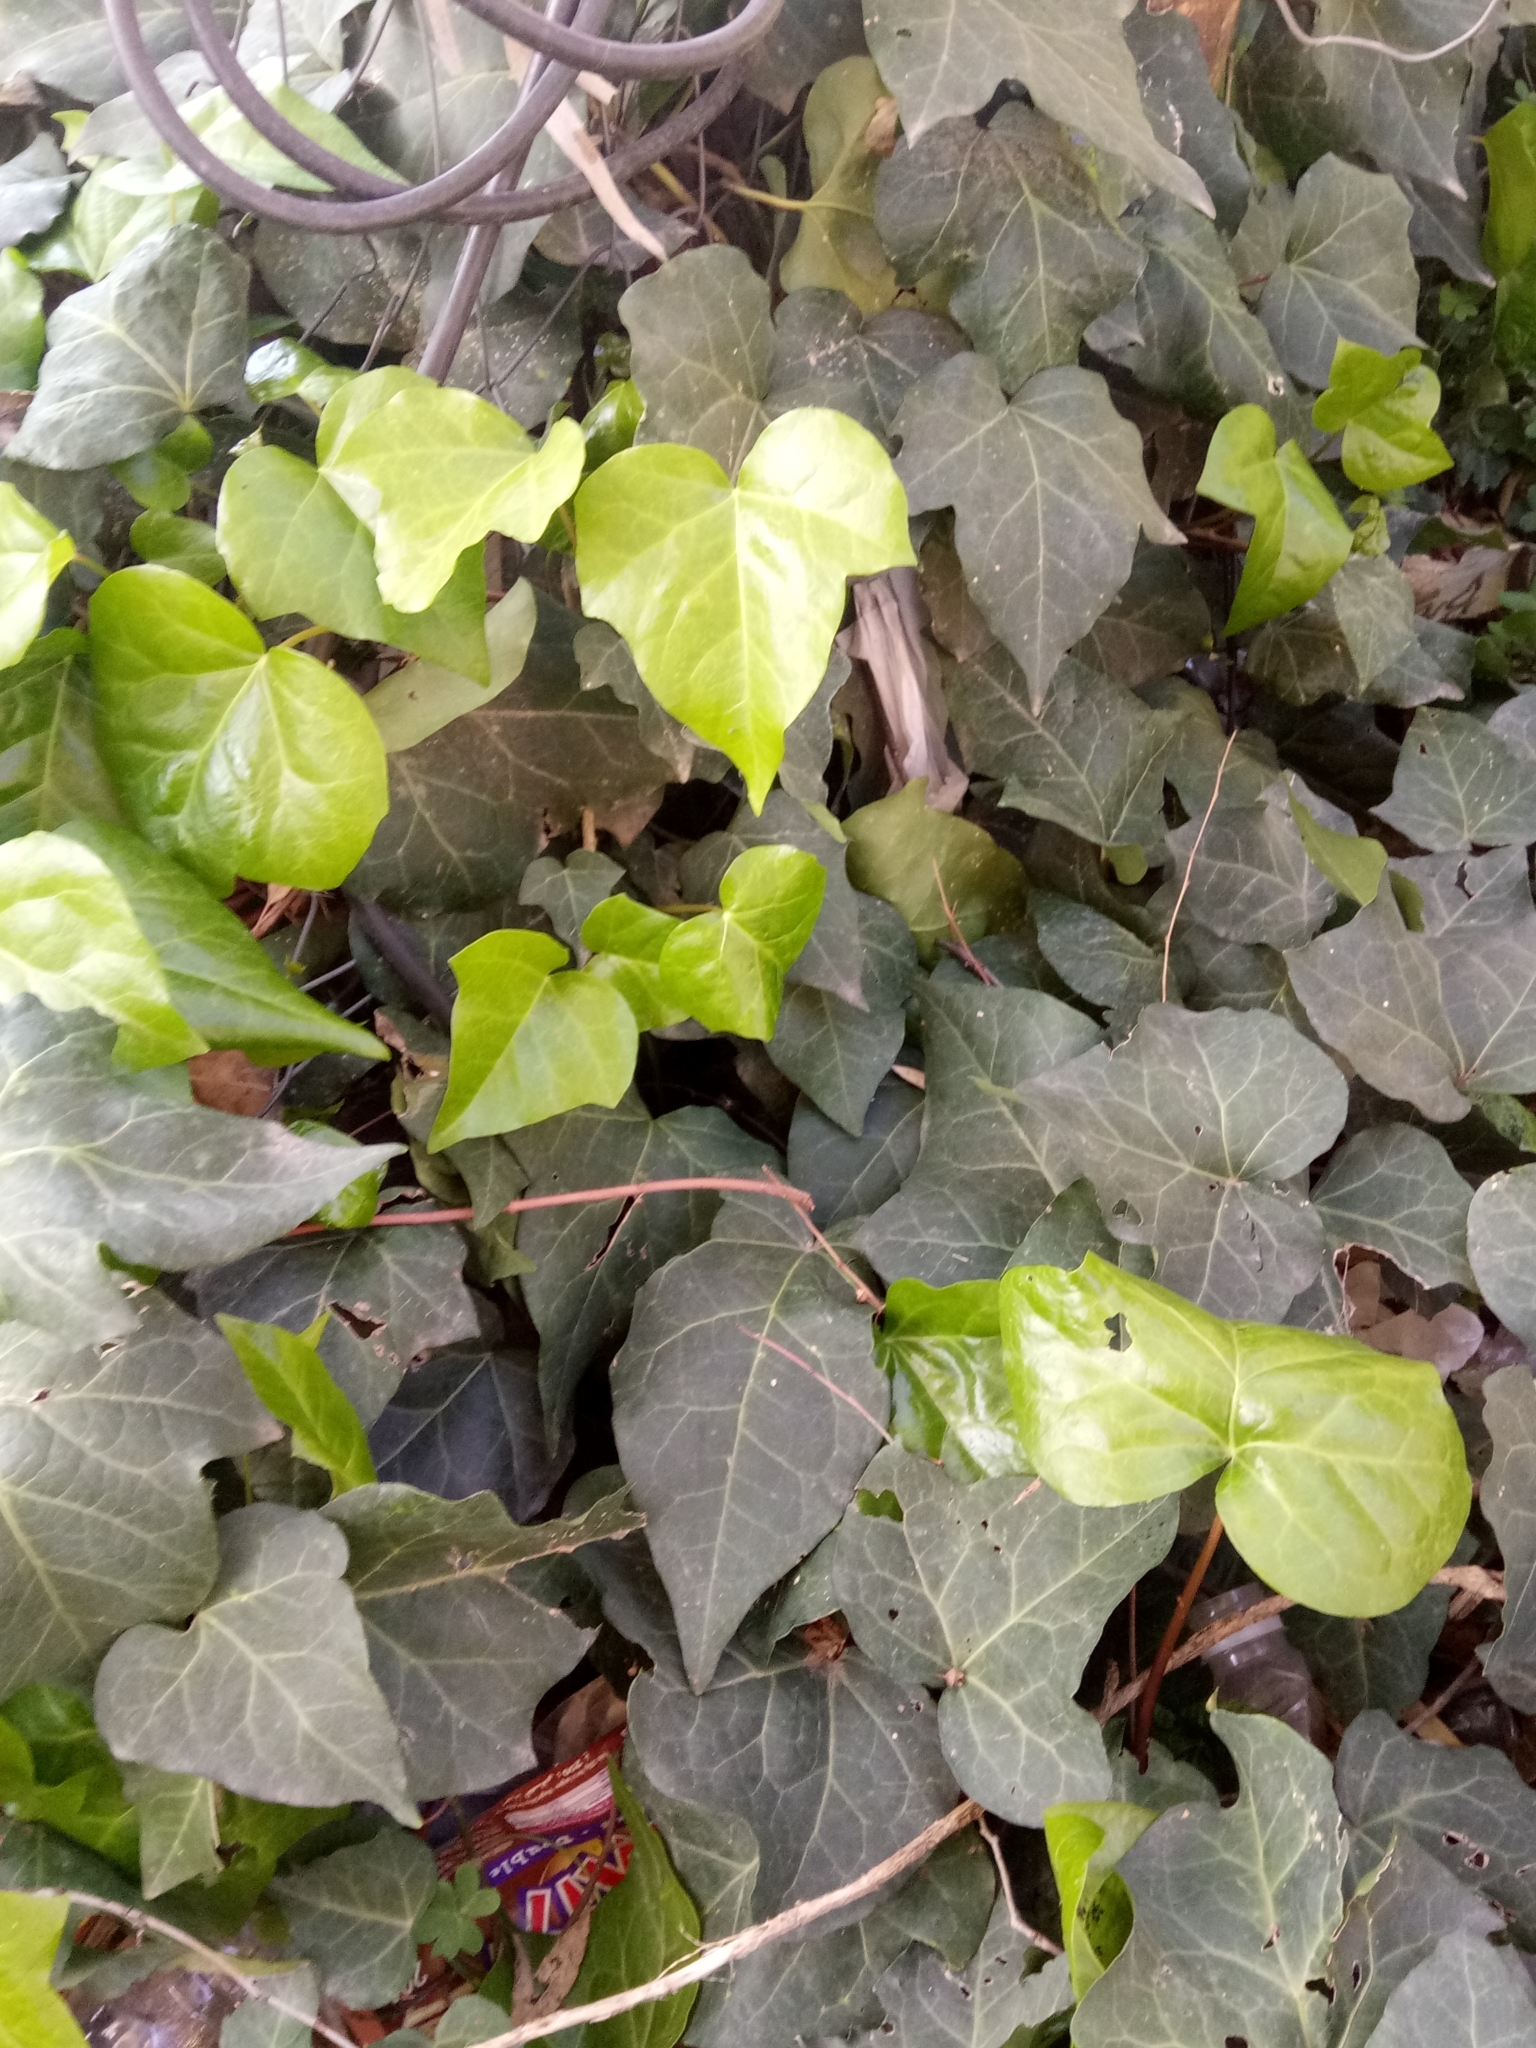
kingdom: Plantae
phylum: Tracheophyta
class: Magnoliopsida
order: Apiales
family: Araliaceae
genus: Hedera
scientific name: Hedera algeriensis
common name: Algerian ivy
